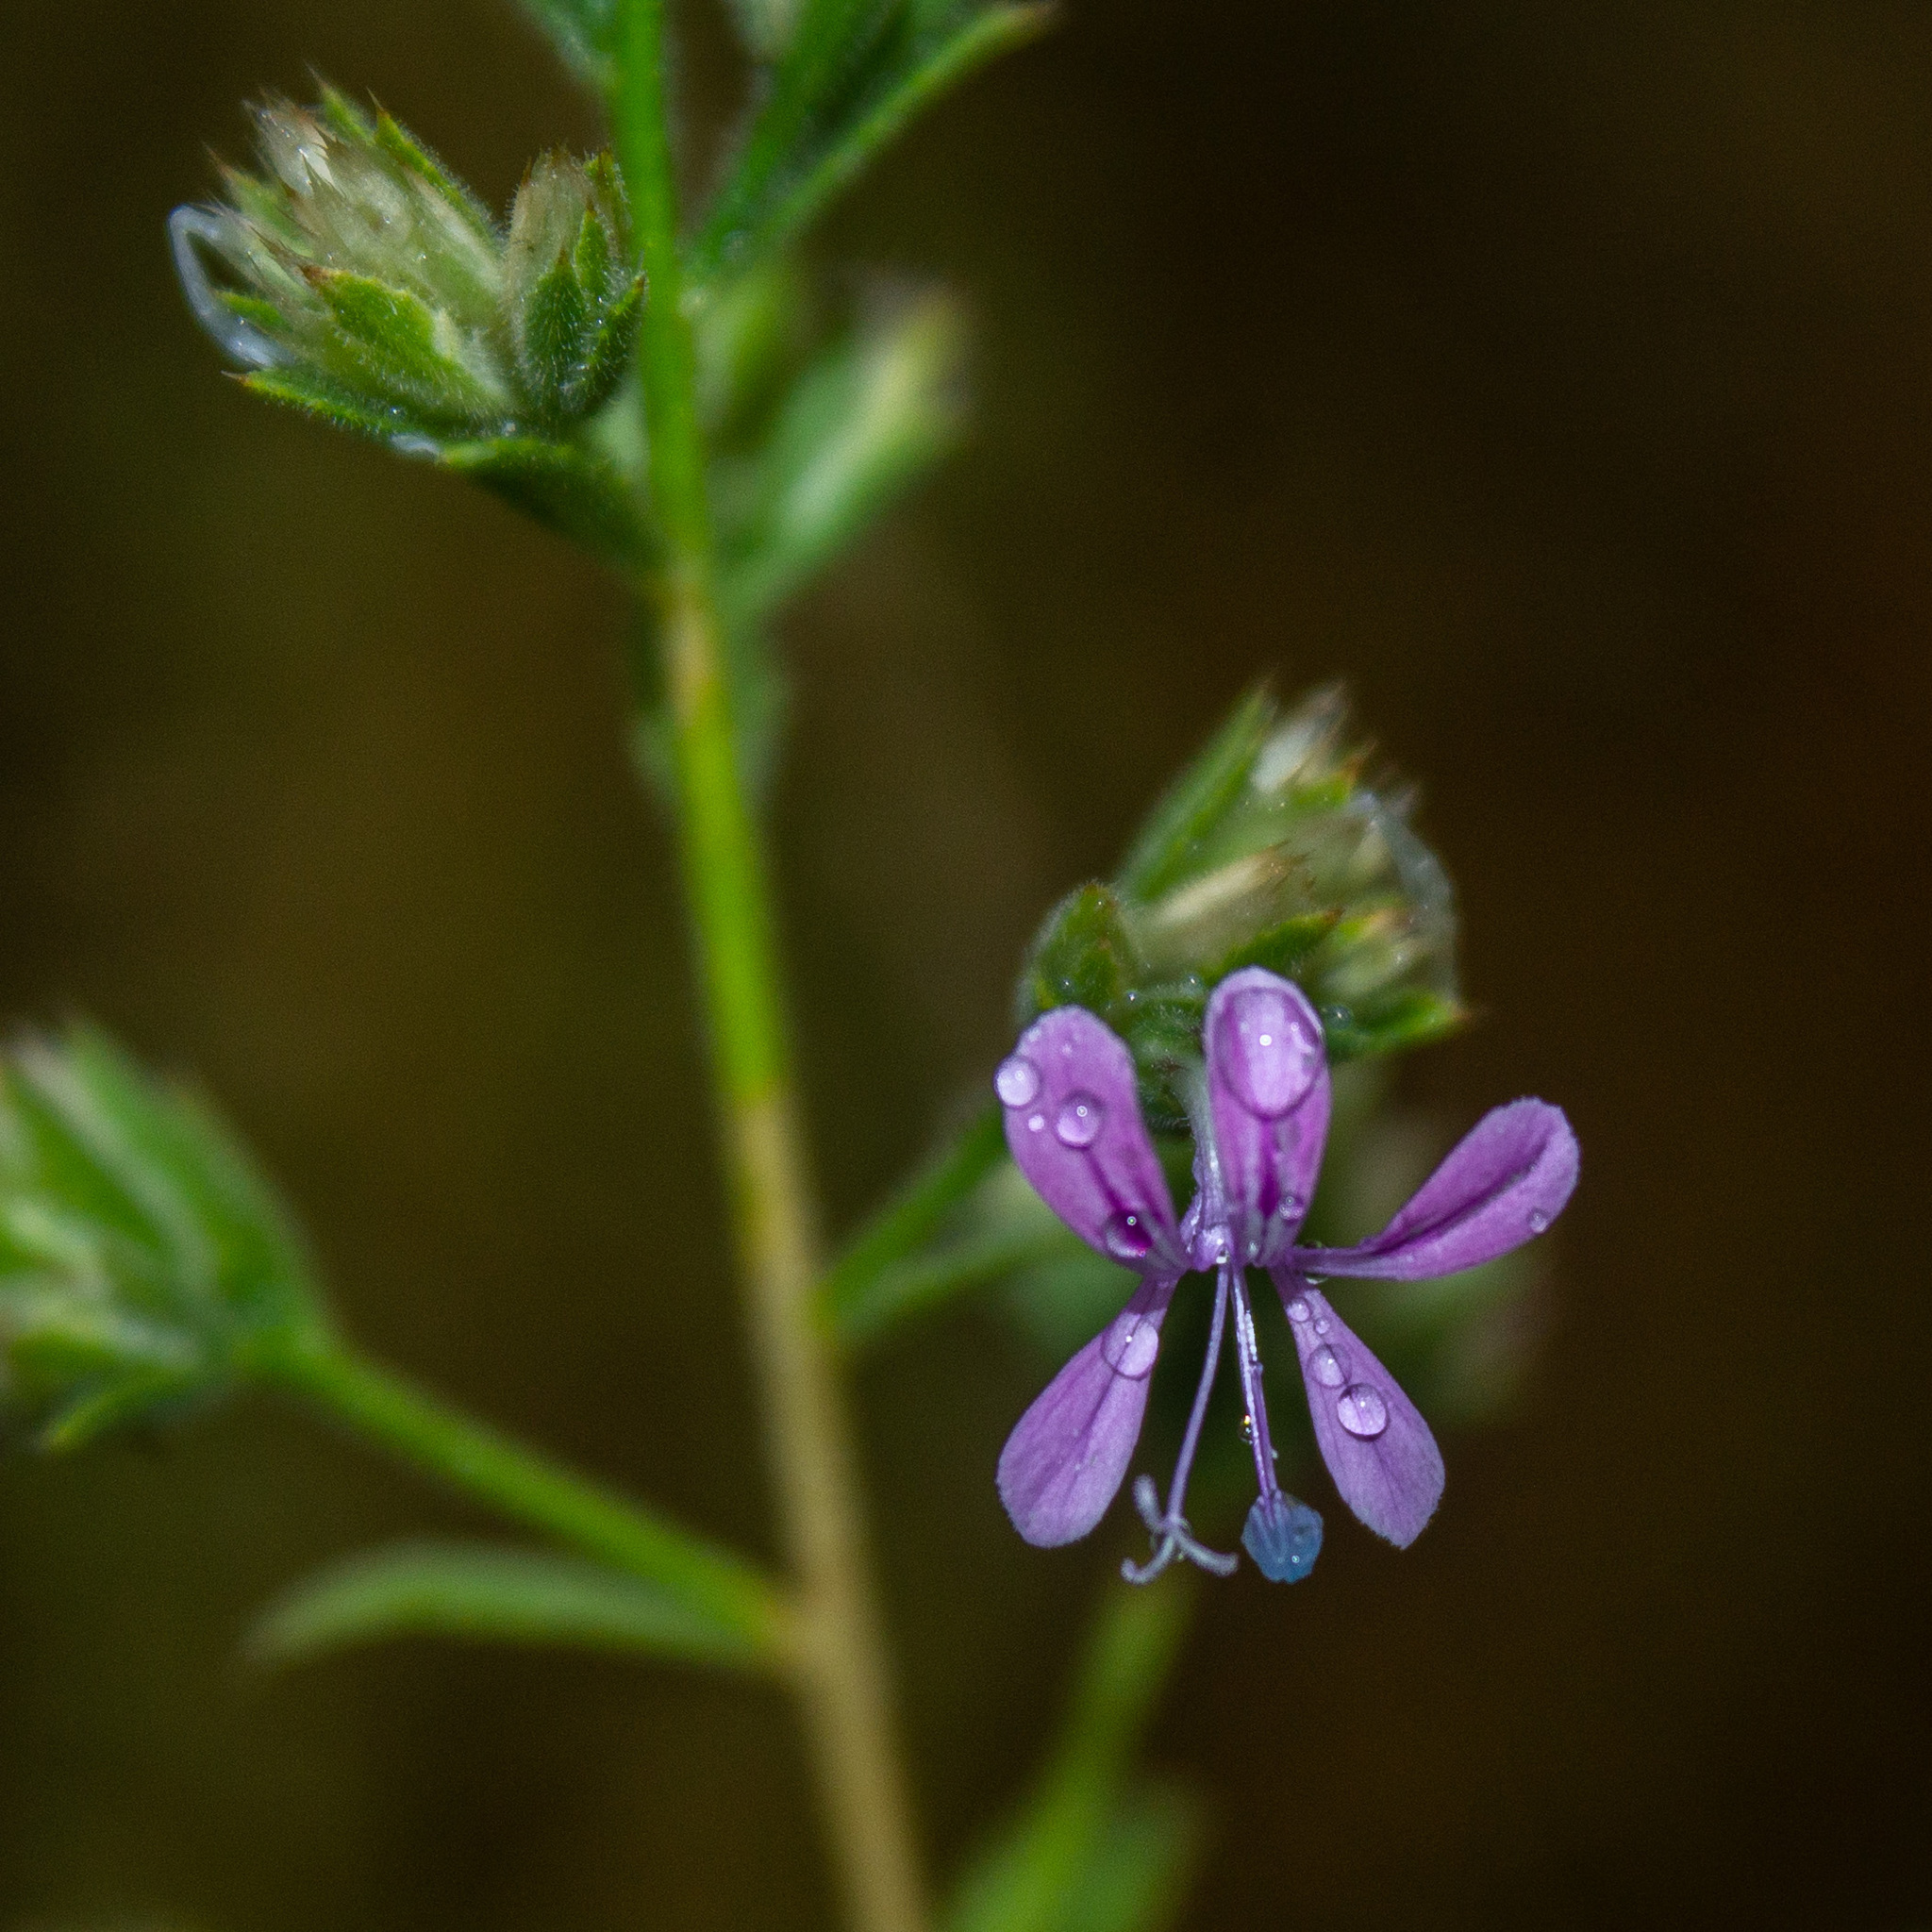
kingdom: Plantae
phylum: Tracheophyta
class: Magnoliopsida
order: Ericales
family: Polemoniaceae
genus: Loeselia
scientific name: Loeselia glandulosa
